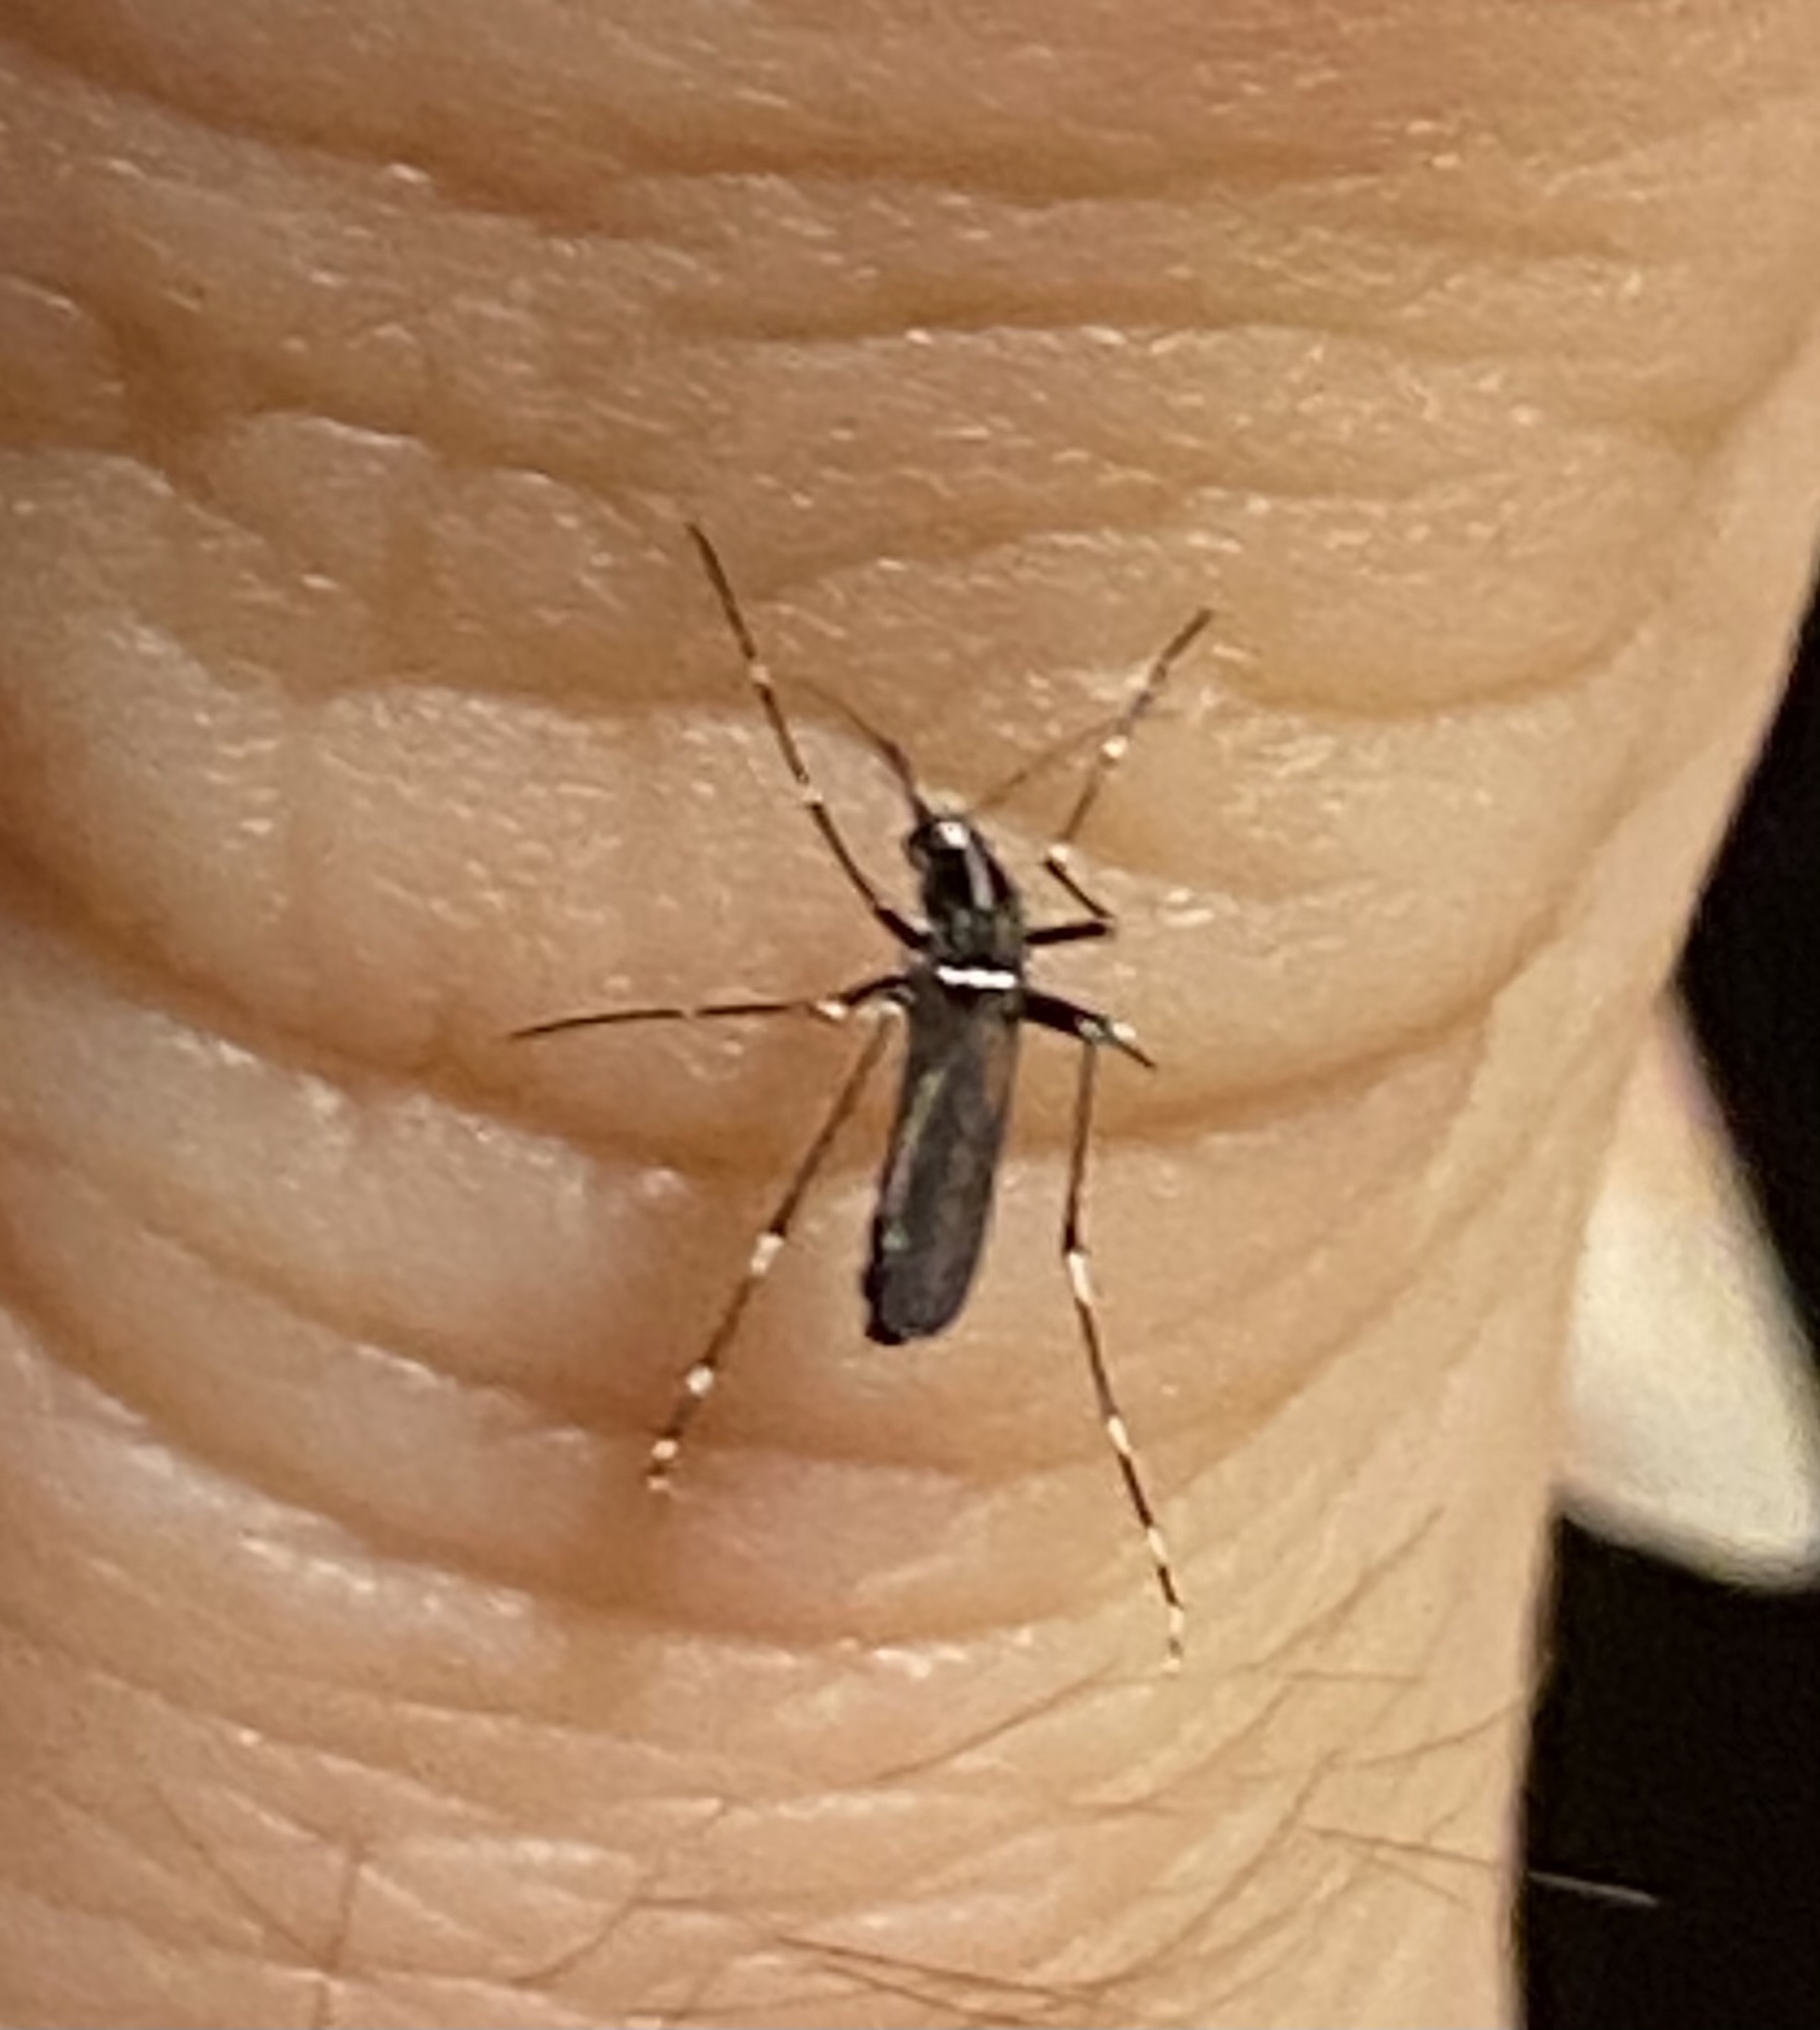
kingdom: Animalia
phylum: Arthropoda
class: Insecta
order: Diptera
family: Culicidae
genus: Aedes
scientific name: Aedes albopictus
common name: Tiger mosquito
